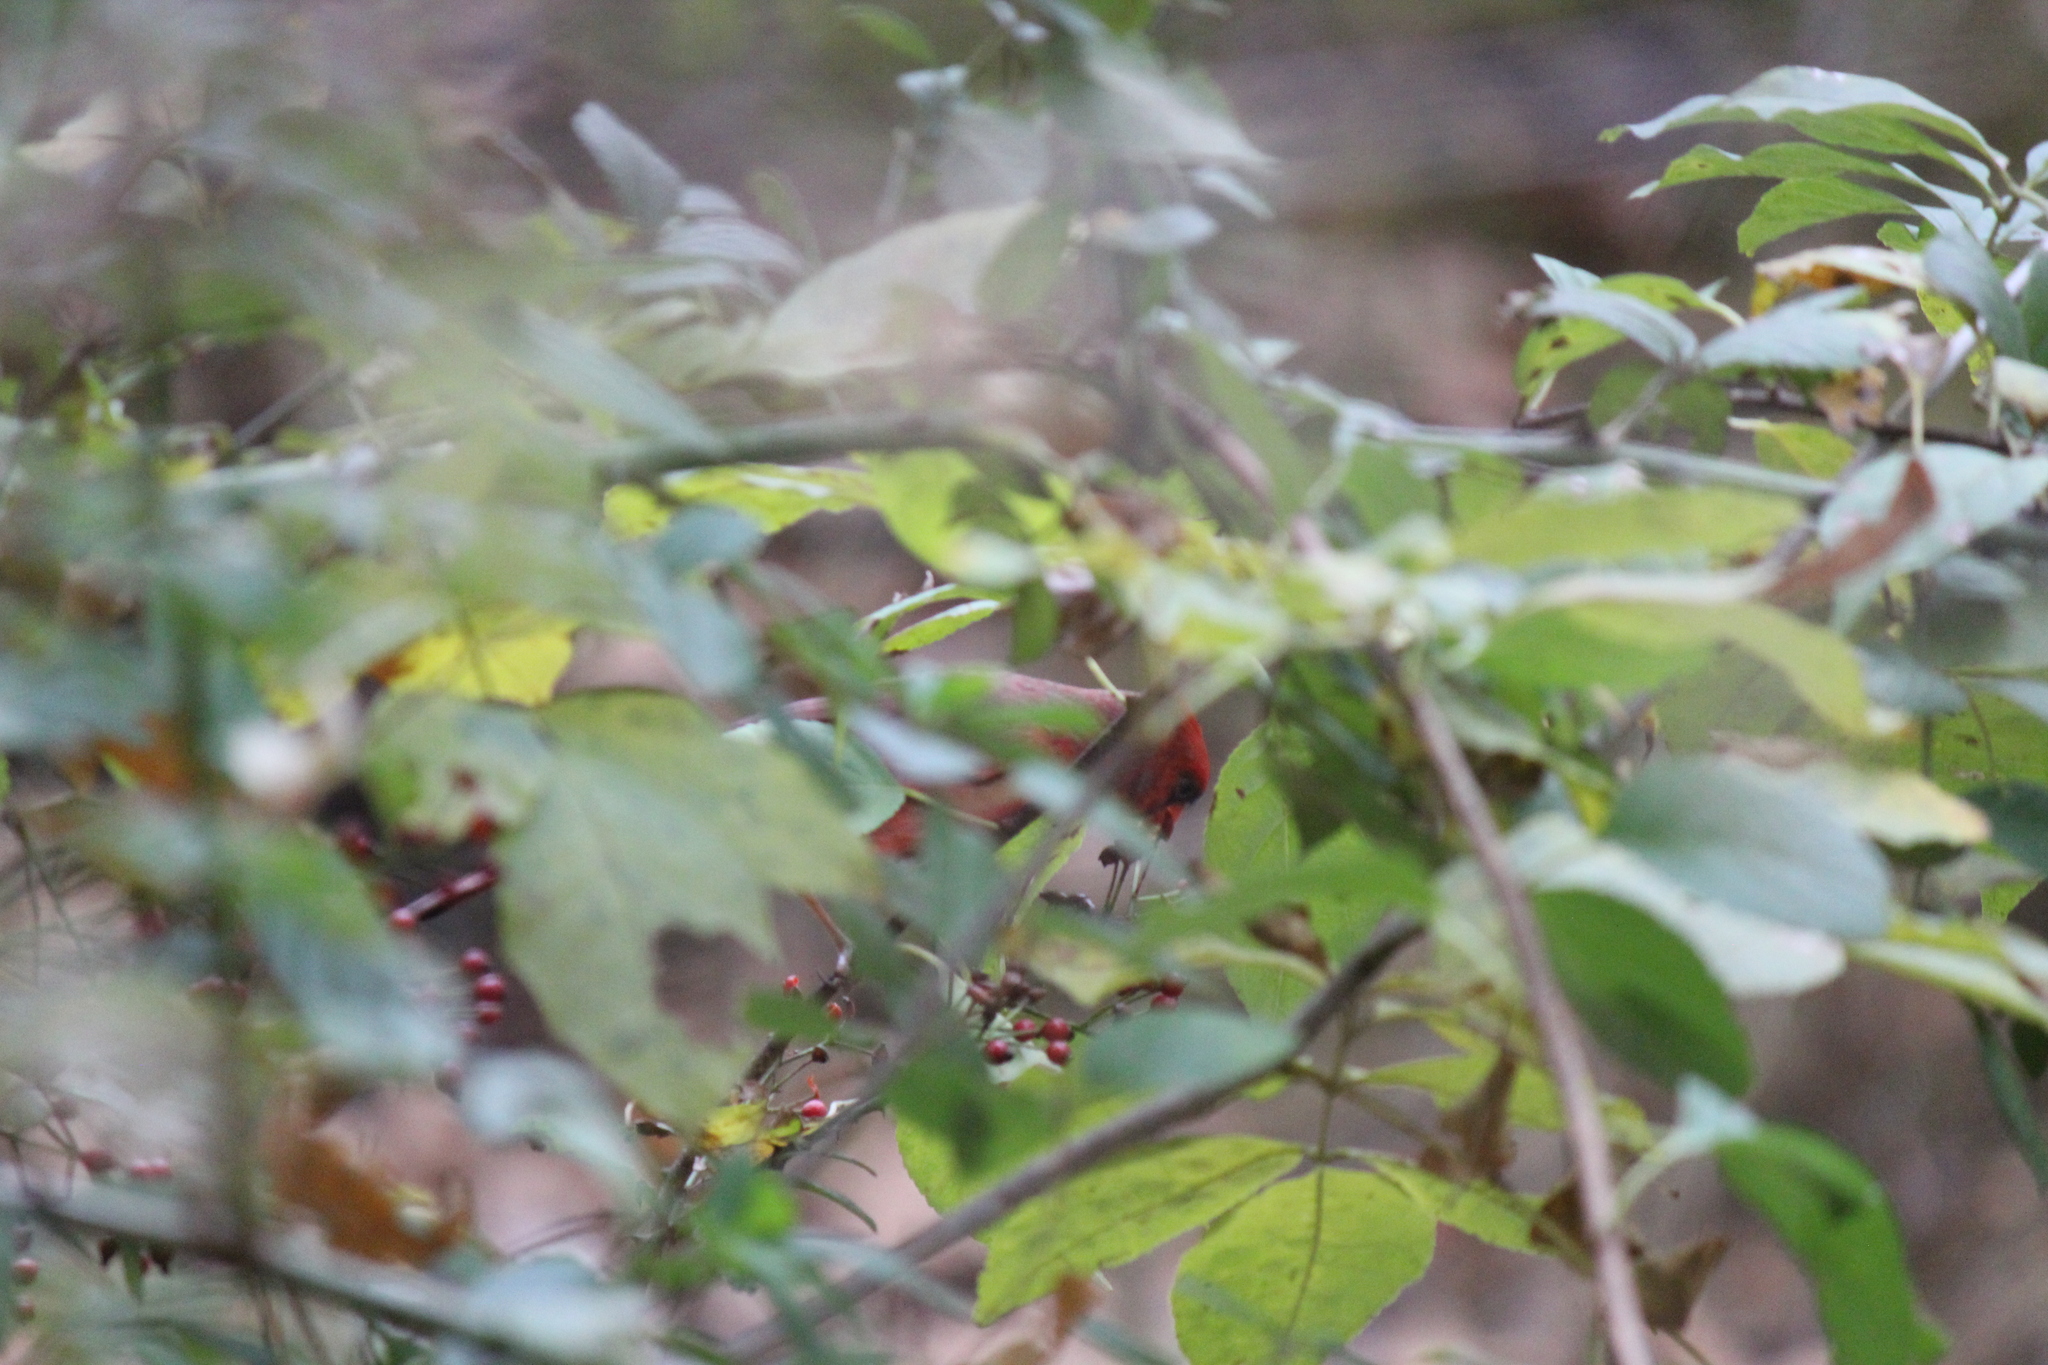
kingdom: Animalia
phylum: Chordata
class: Aves
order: Passeriformes
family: Cardinalidae
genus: Cardinalis
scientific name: Cardinalis cardinalis
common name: Northern cardinal
